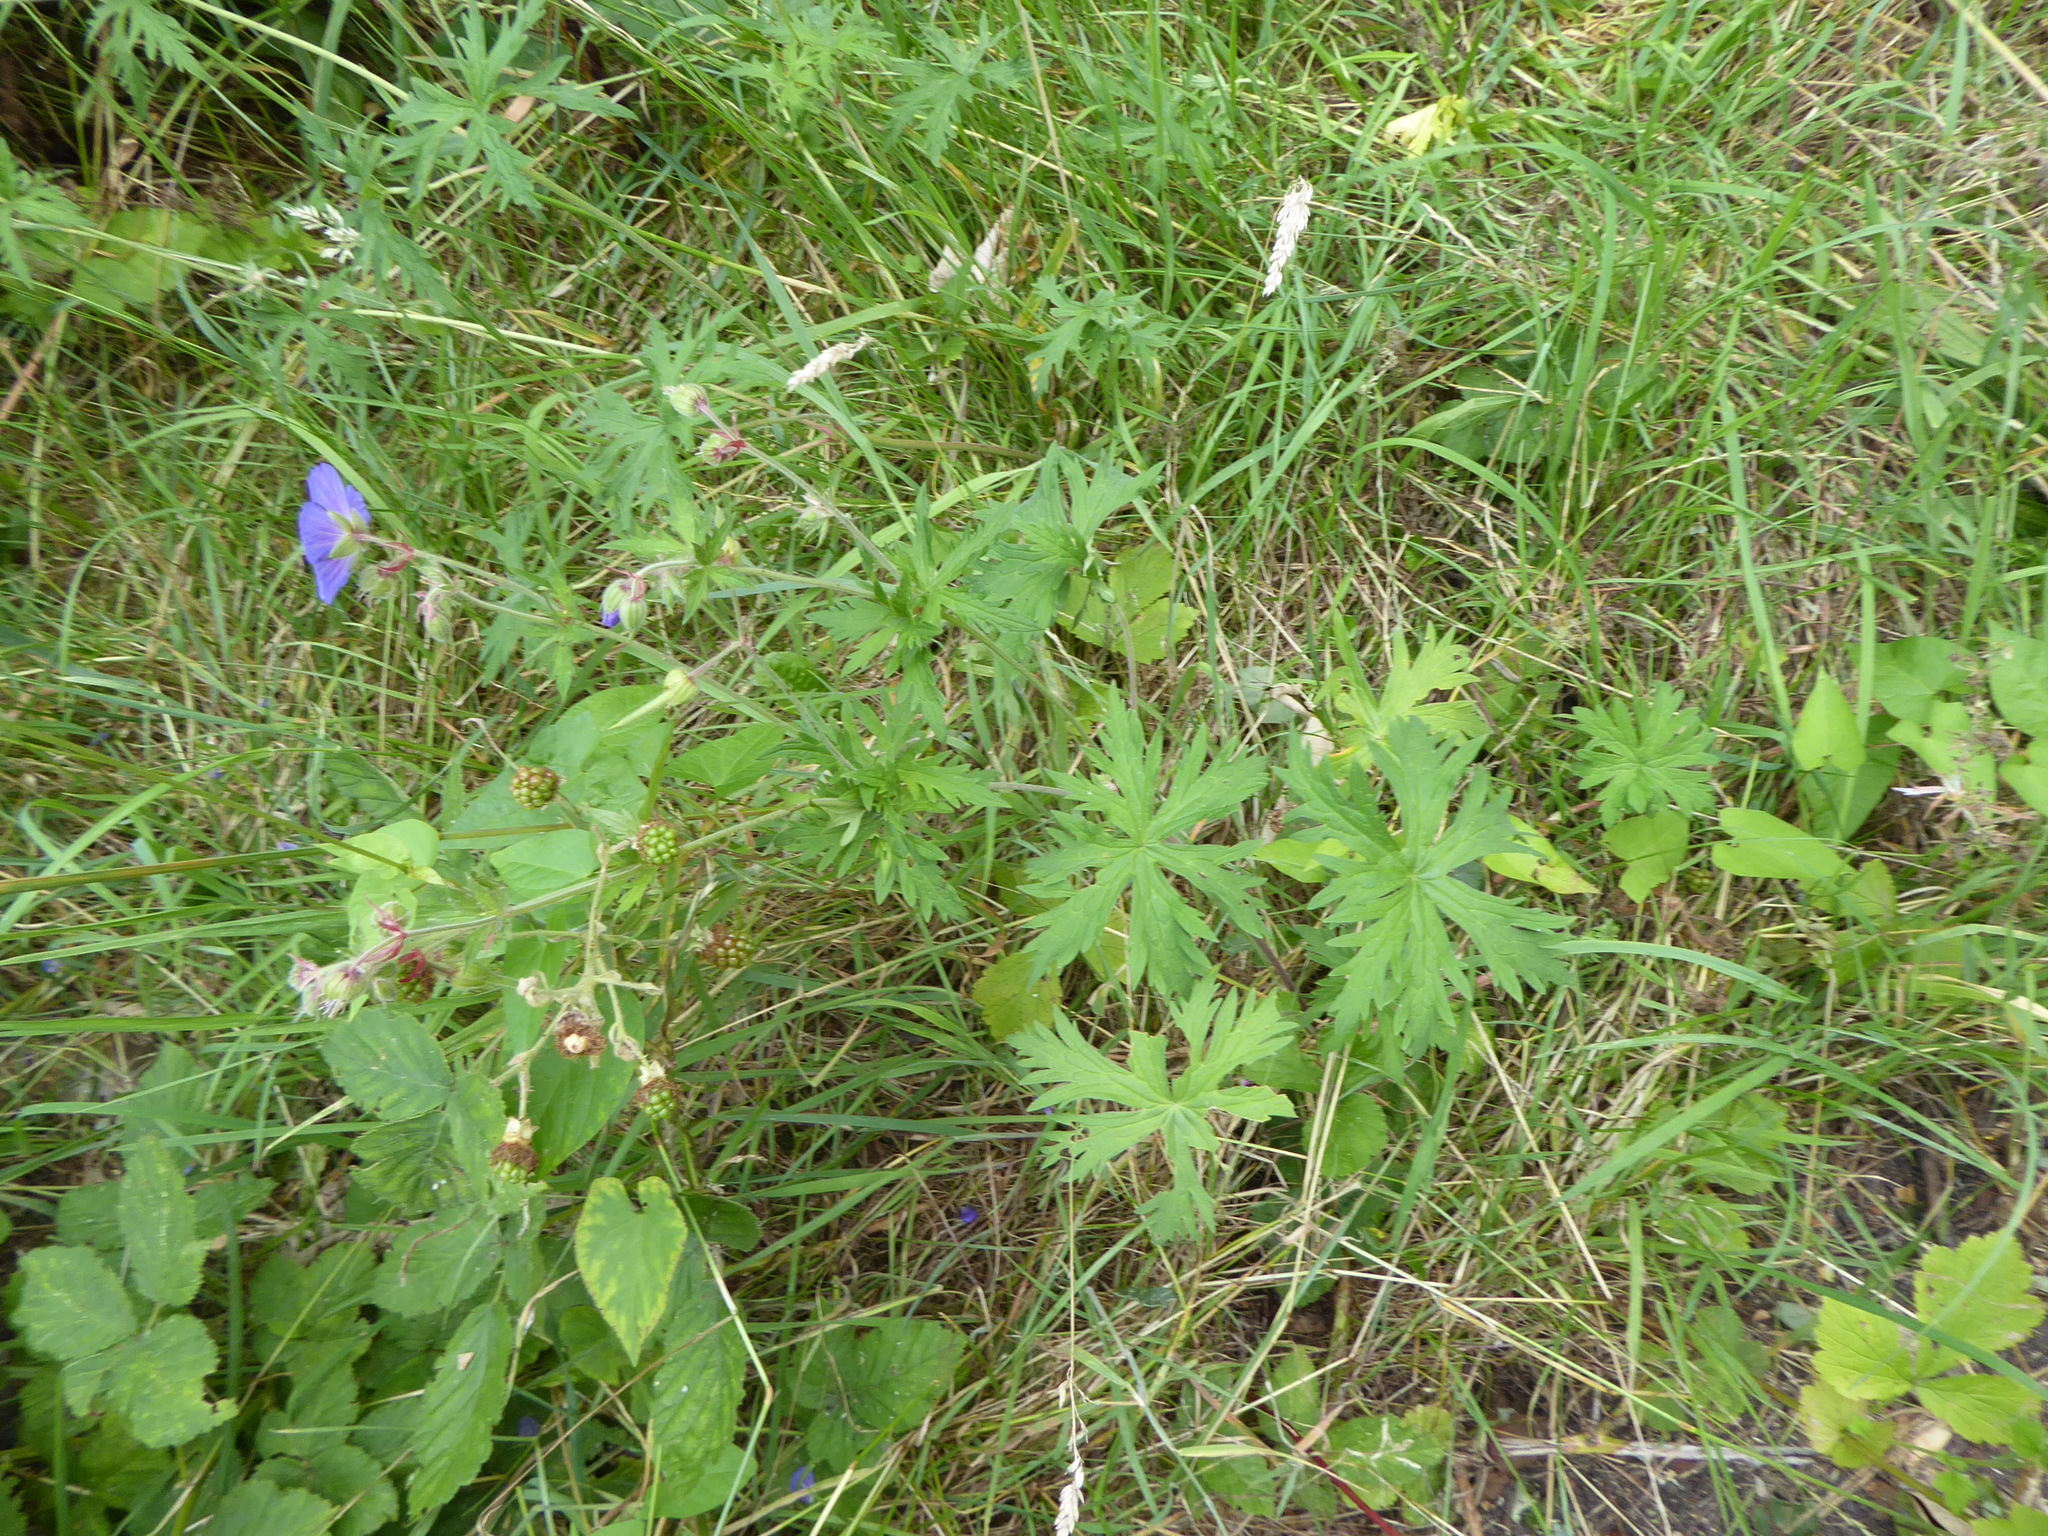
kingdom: Plantae
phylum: Tracheophyta
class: Magnoliopsida
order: Geraniales
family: Geraniaceae
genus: Geranium
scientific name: Geranium pratense
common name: Meadow crane's-bill
